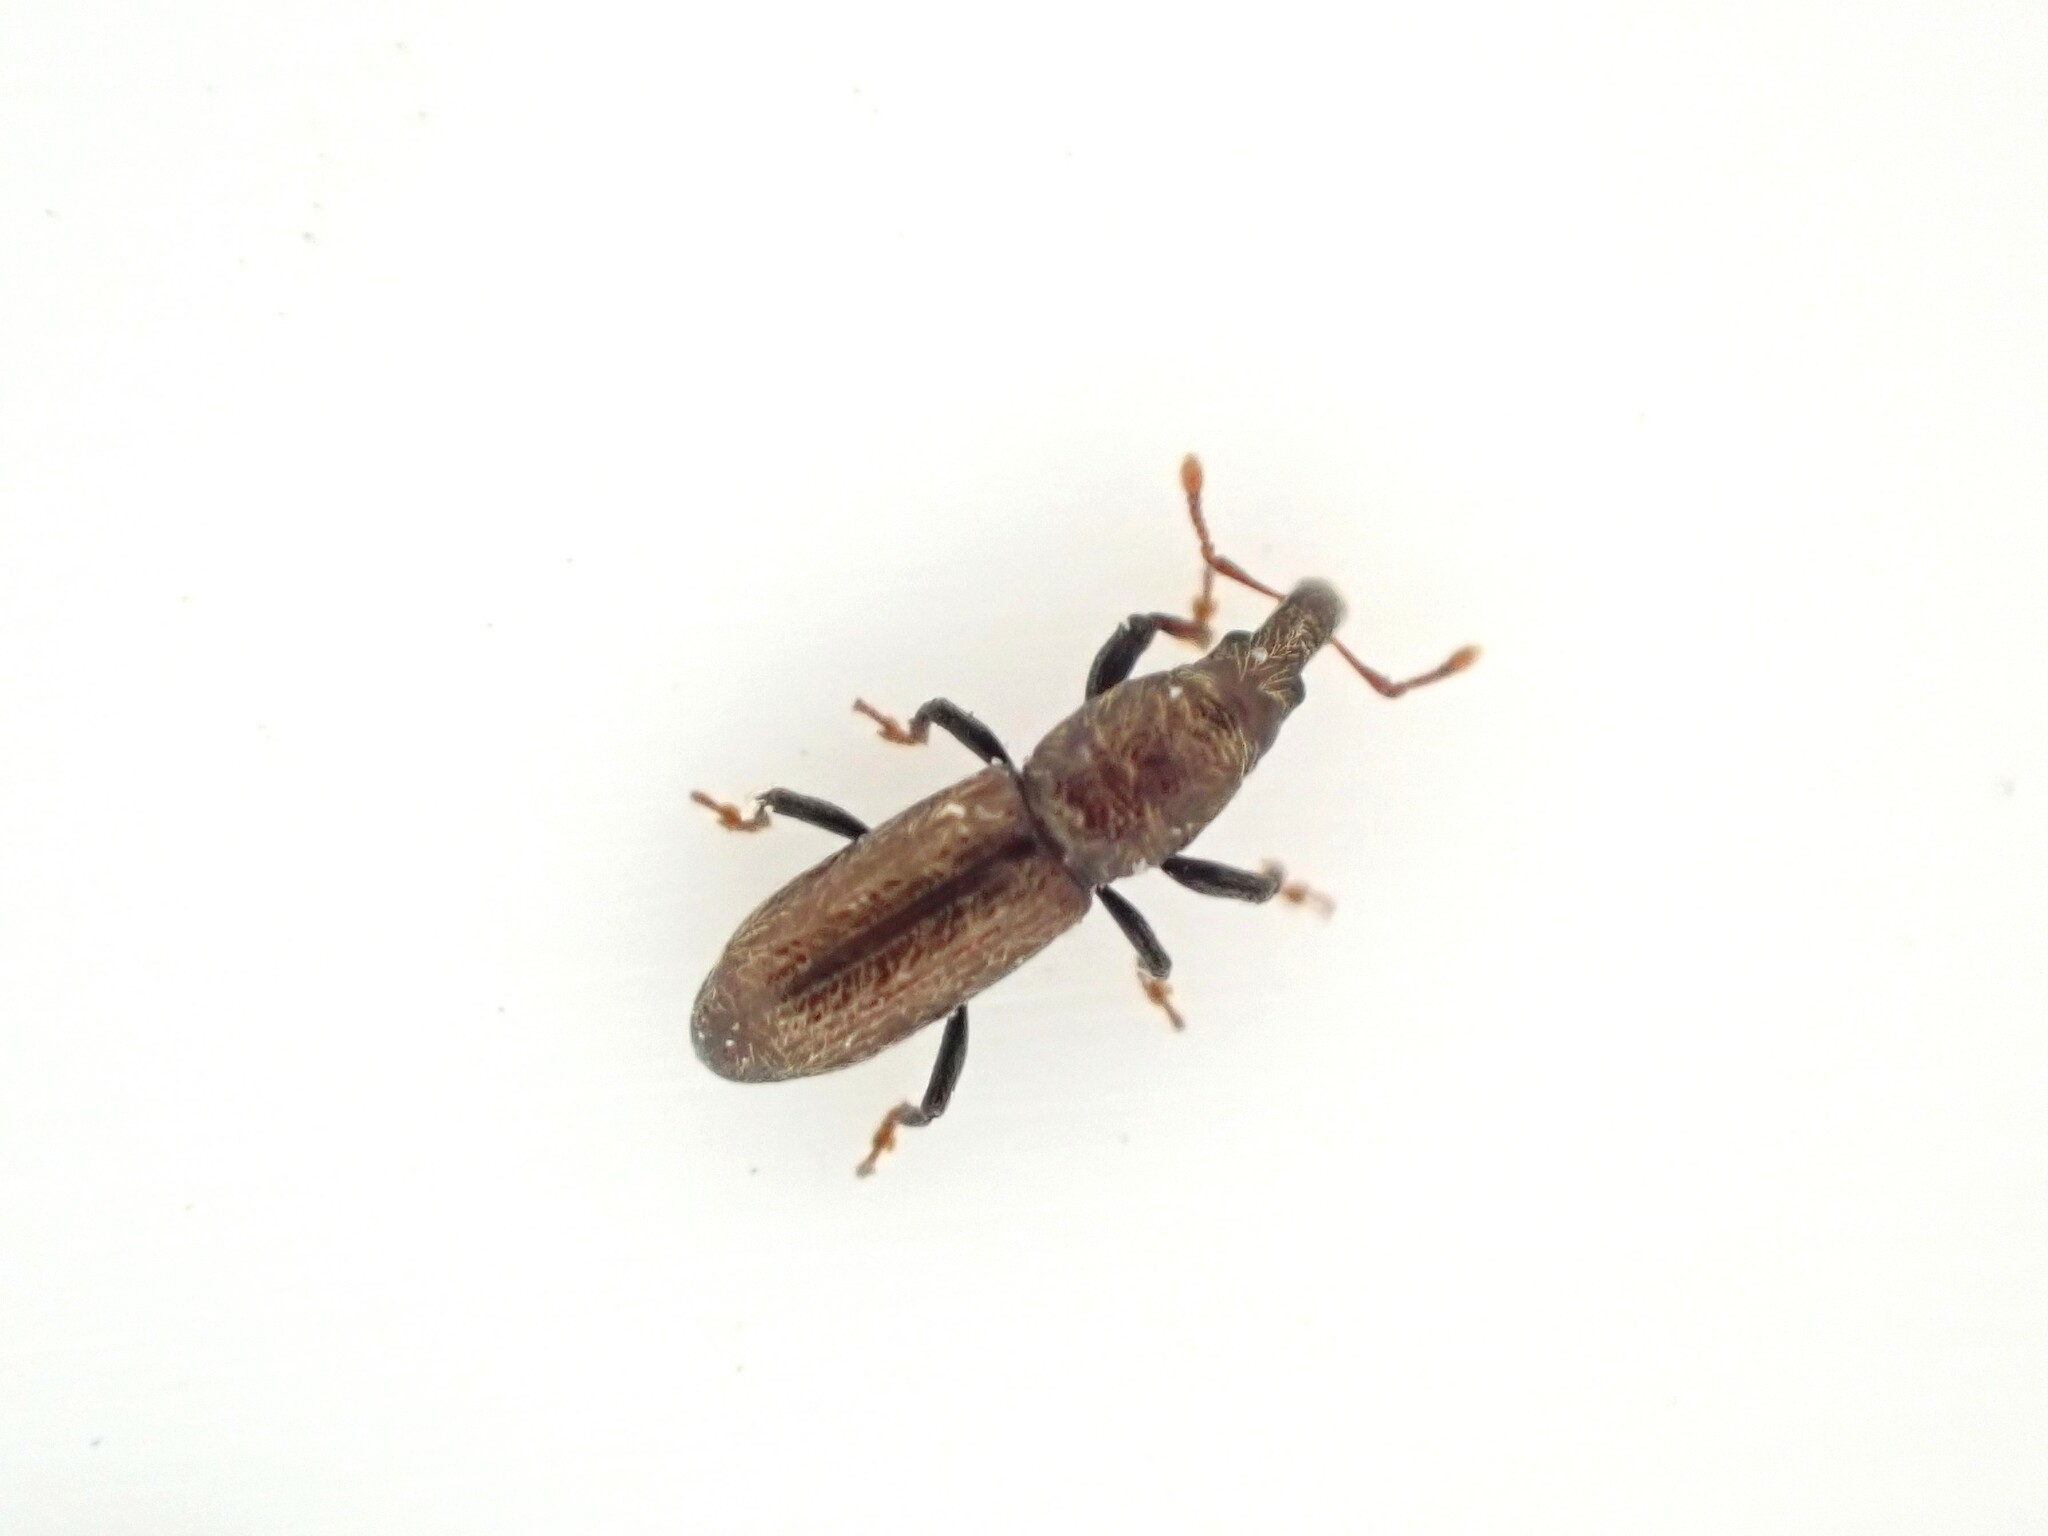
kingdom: Animalia
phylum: Arthropoda
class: Insecta
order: Coleoptera
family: Curculionidae
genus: Sericotrogus
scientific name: Sericotrogus subaenescens
